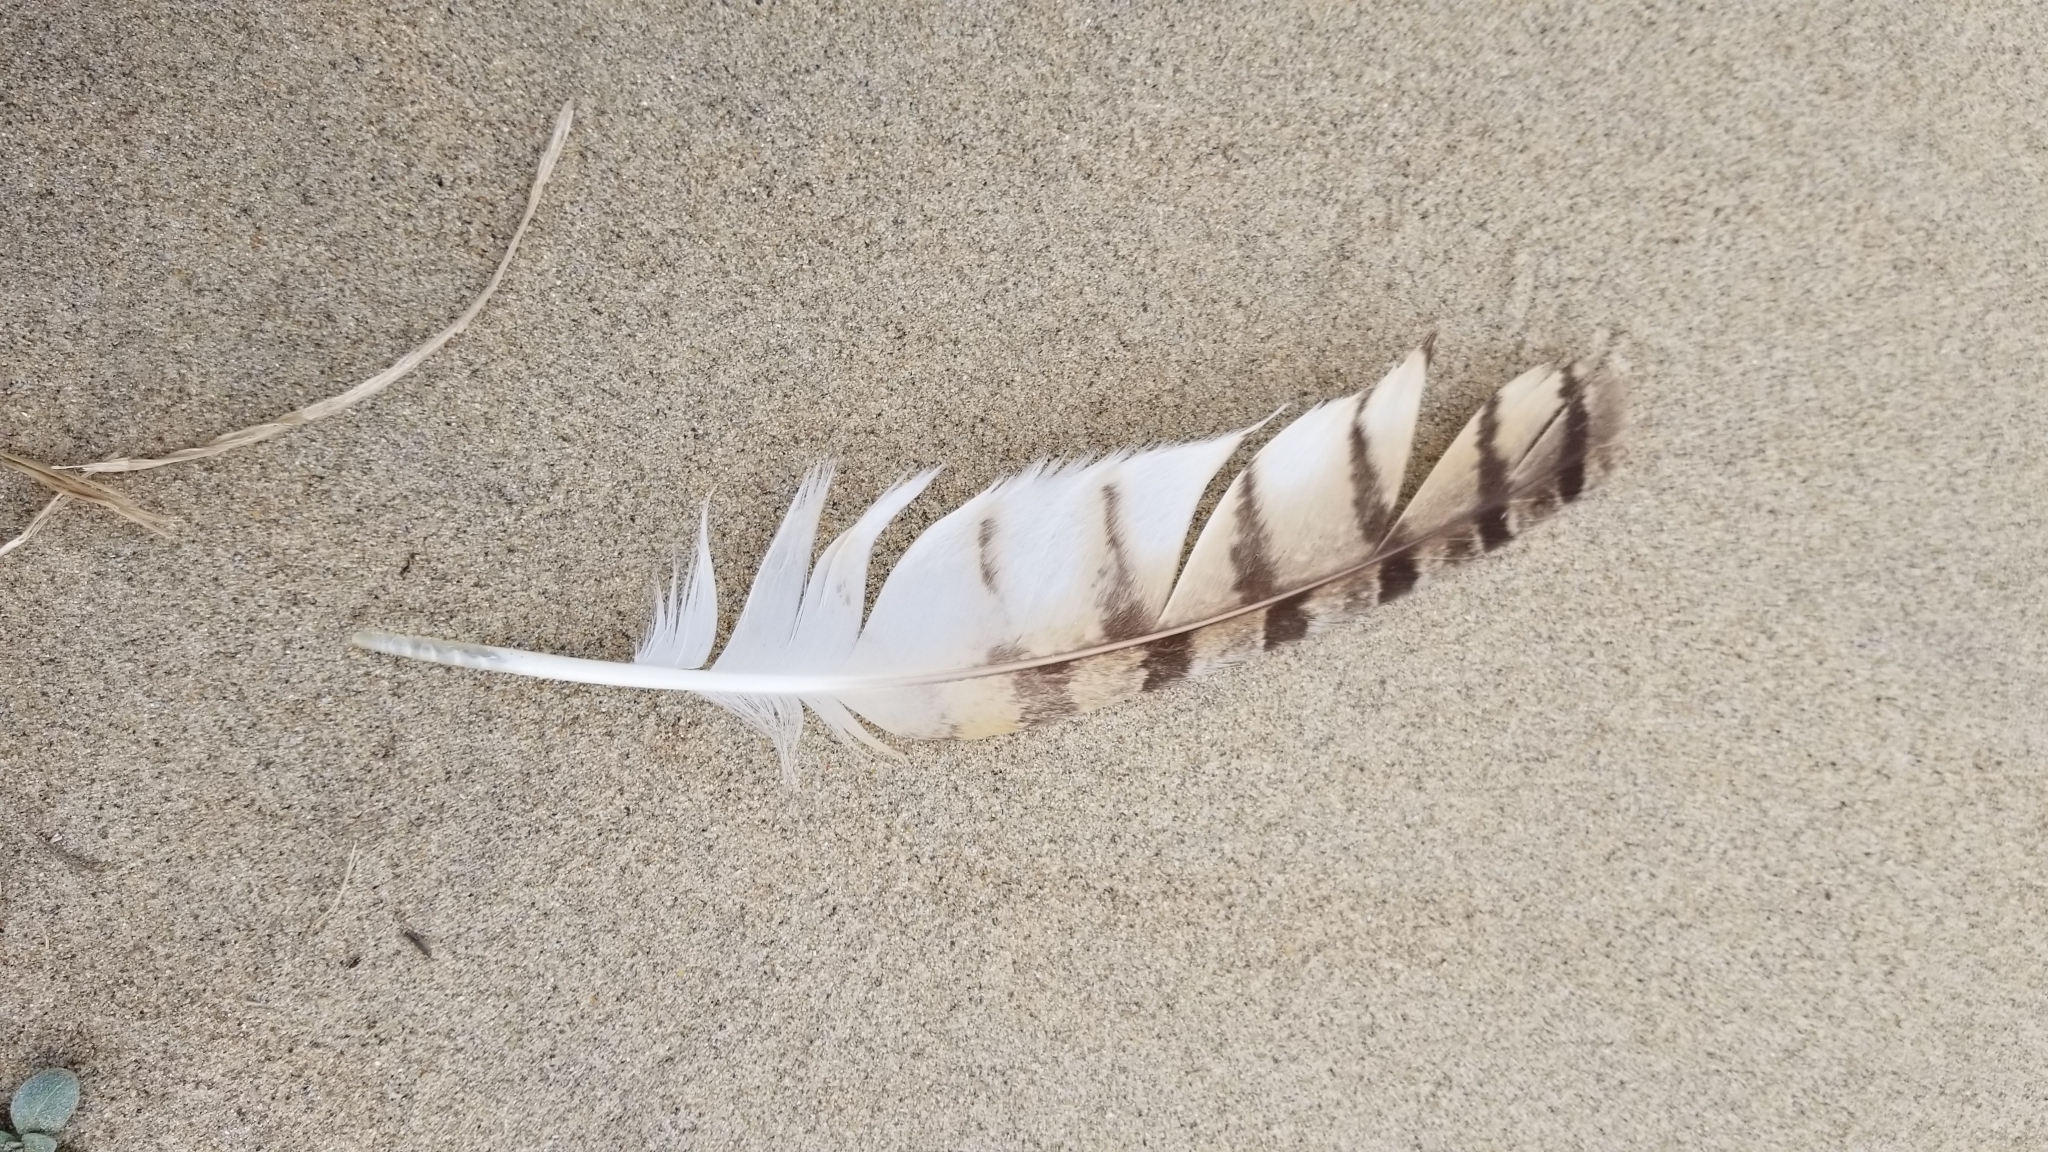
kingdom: Animalia
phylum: Chordata
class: Aves
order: Strigiformes
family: Strigidae
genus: Bubo
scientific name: Bubo virginianus
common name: Great horned owl
